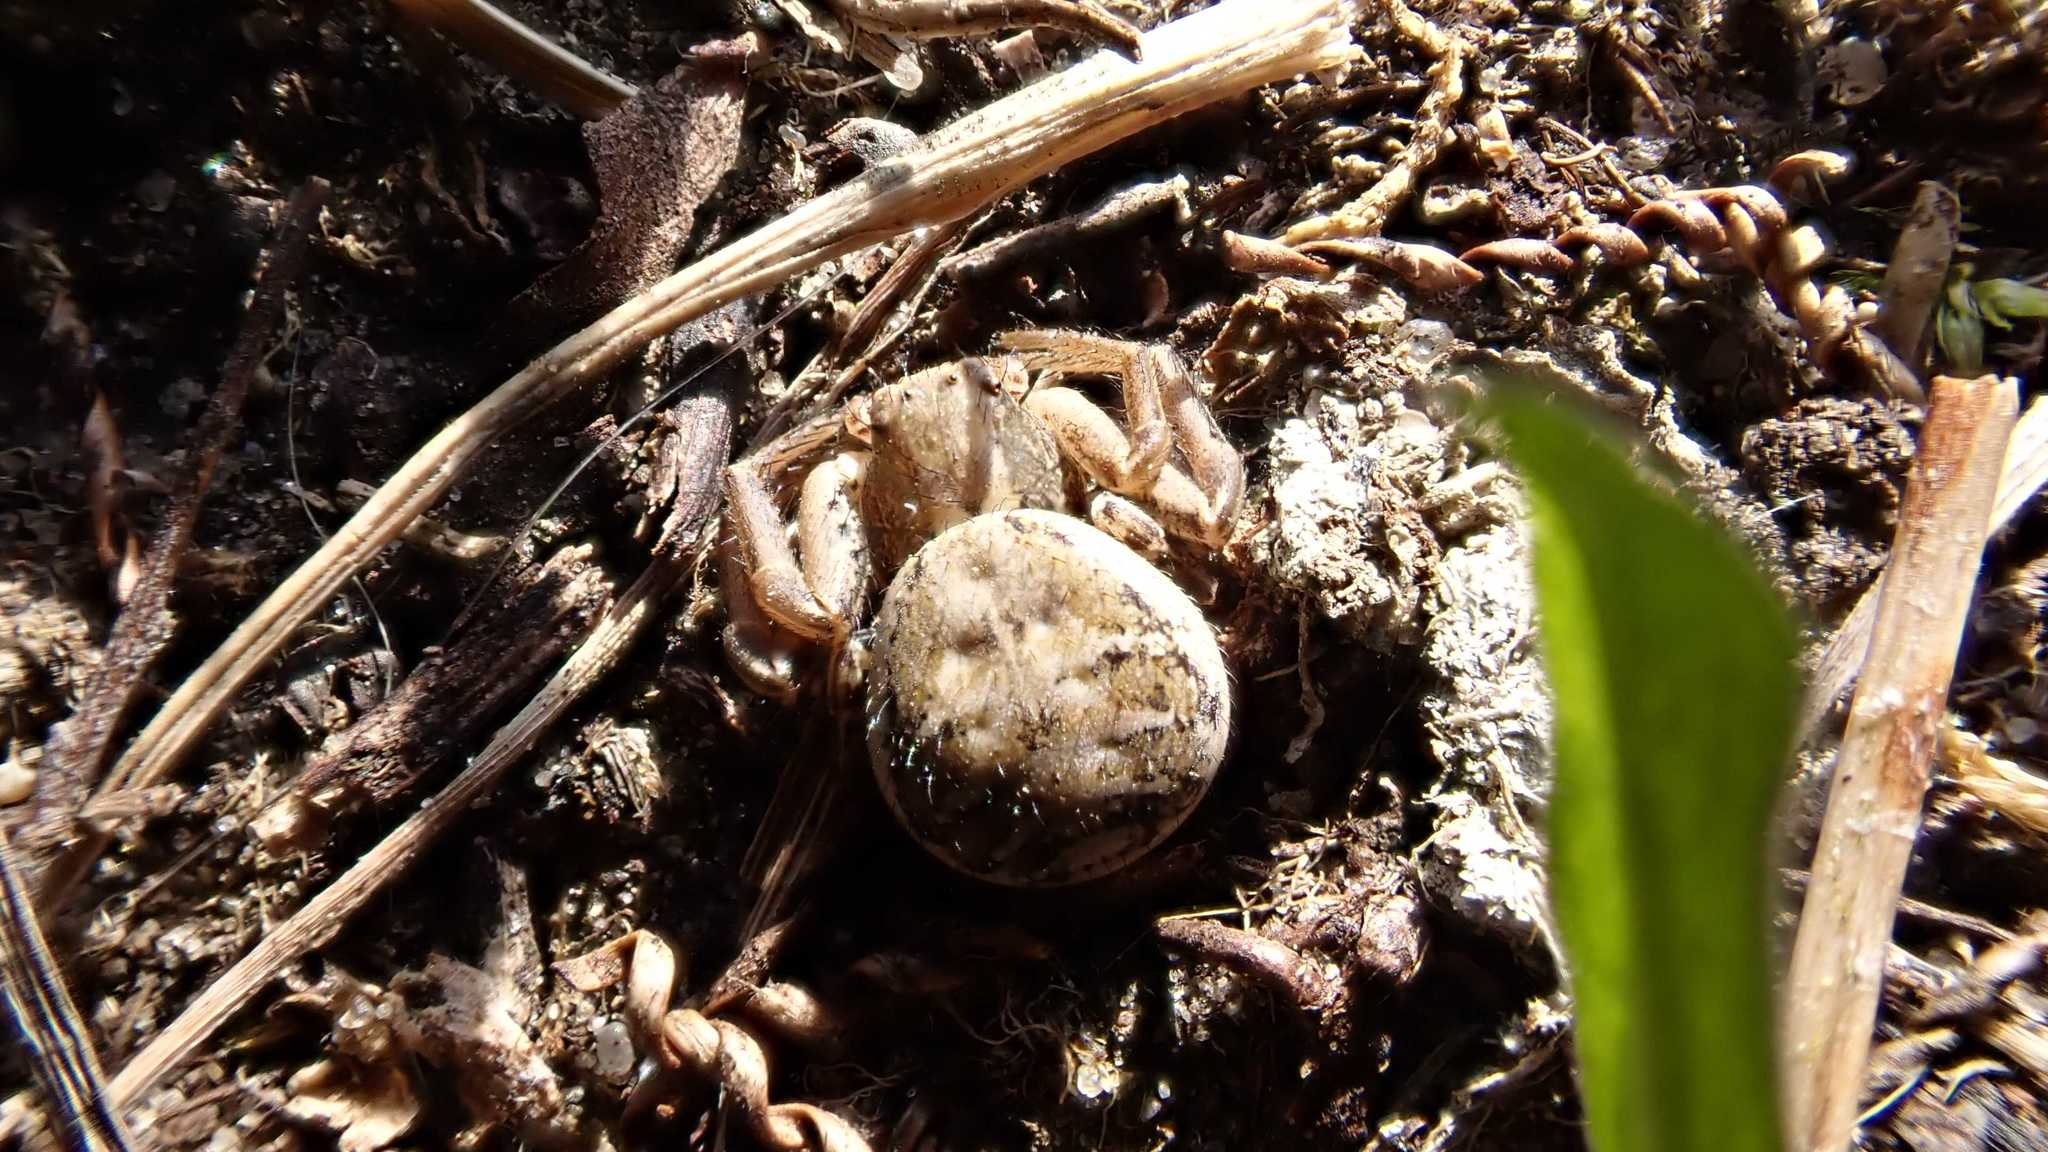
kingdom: Animalia
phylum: Arthropoda
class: Arachnida
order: Araneae
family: Thomisidae
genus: Xysticus
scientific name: Xysticus
